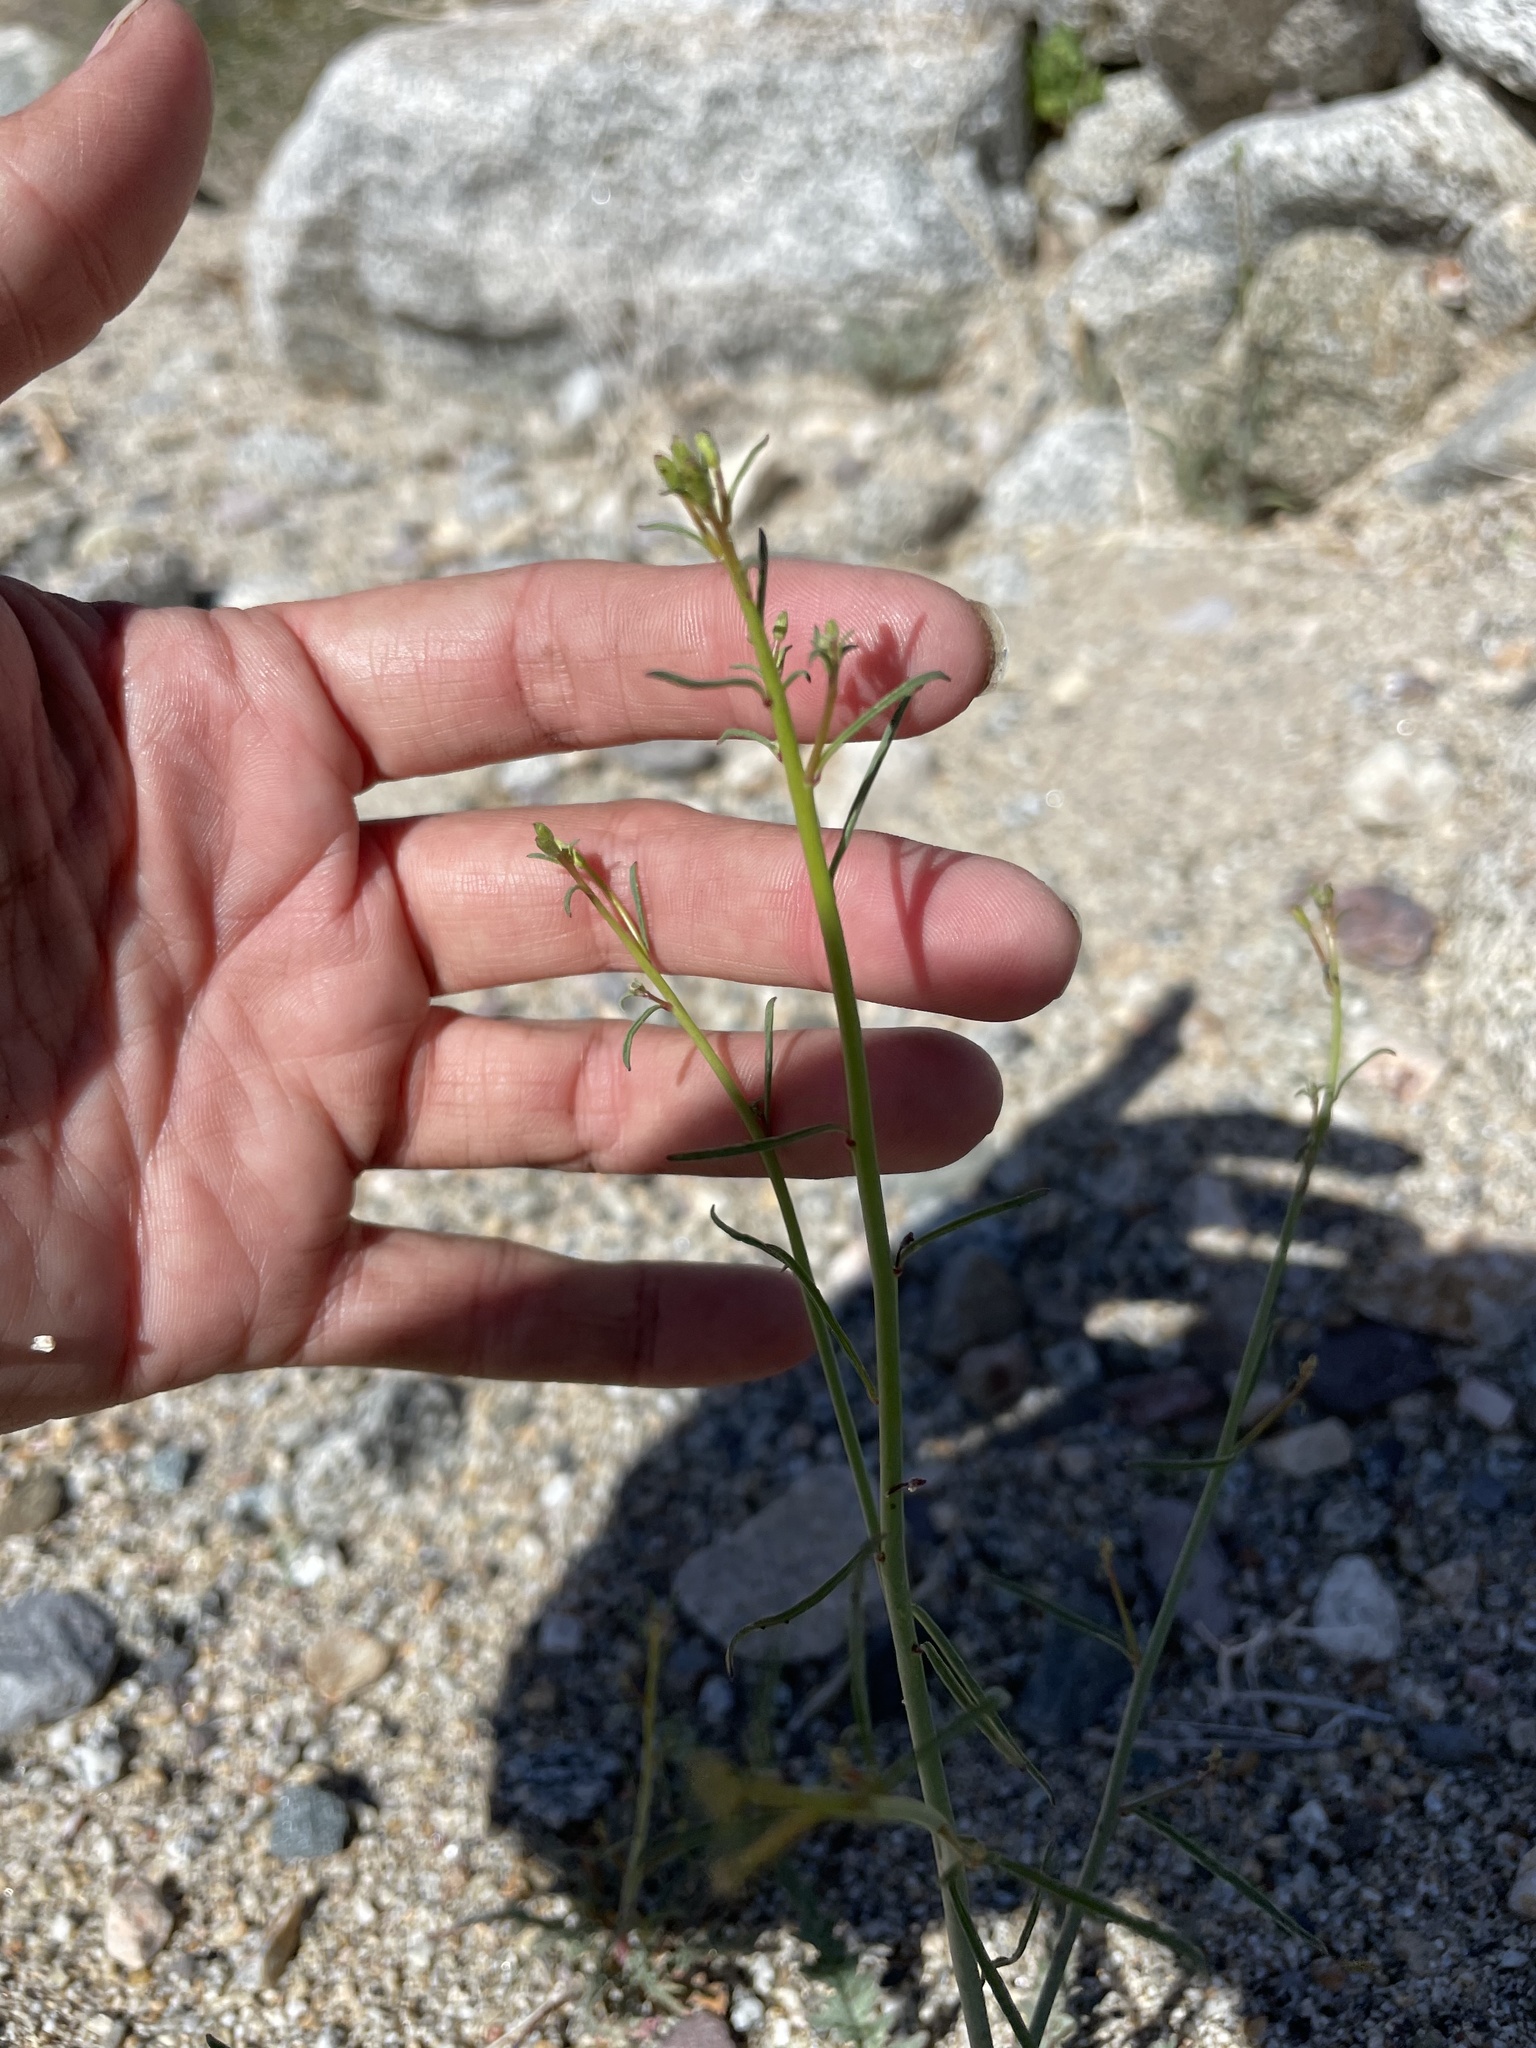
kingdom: Plantae
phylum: Tracheophyta
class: Magnoliopsida
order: Myrtales
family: Onagraceae
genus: Eulobus
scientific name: Eulobus californicus
